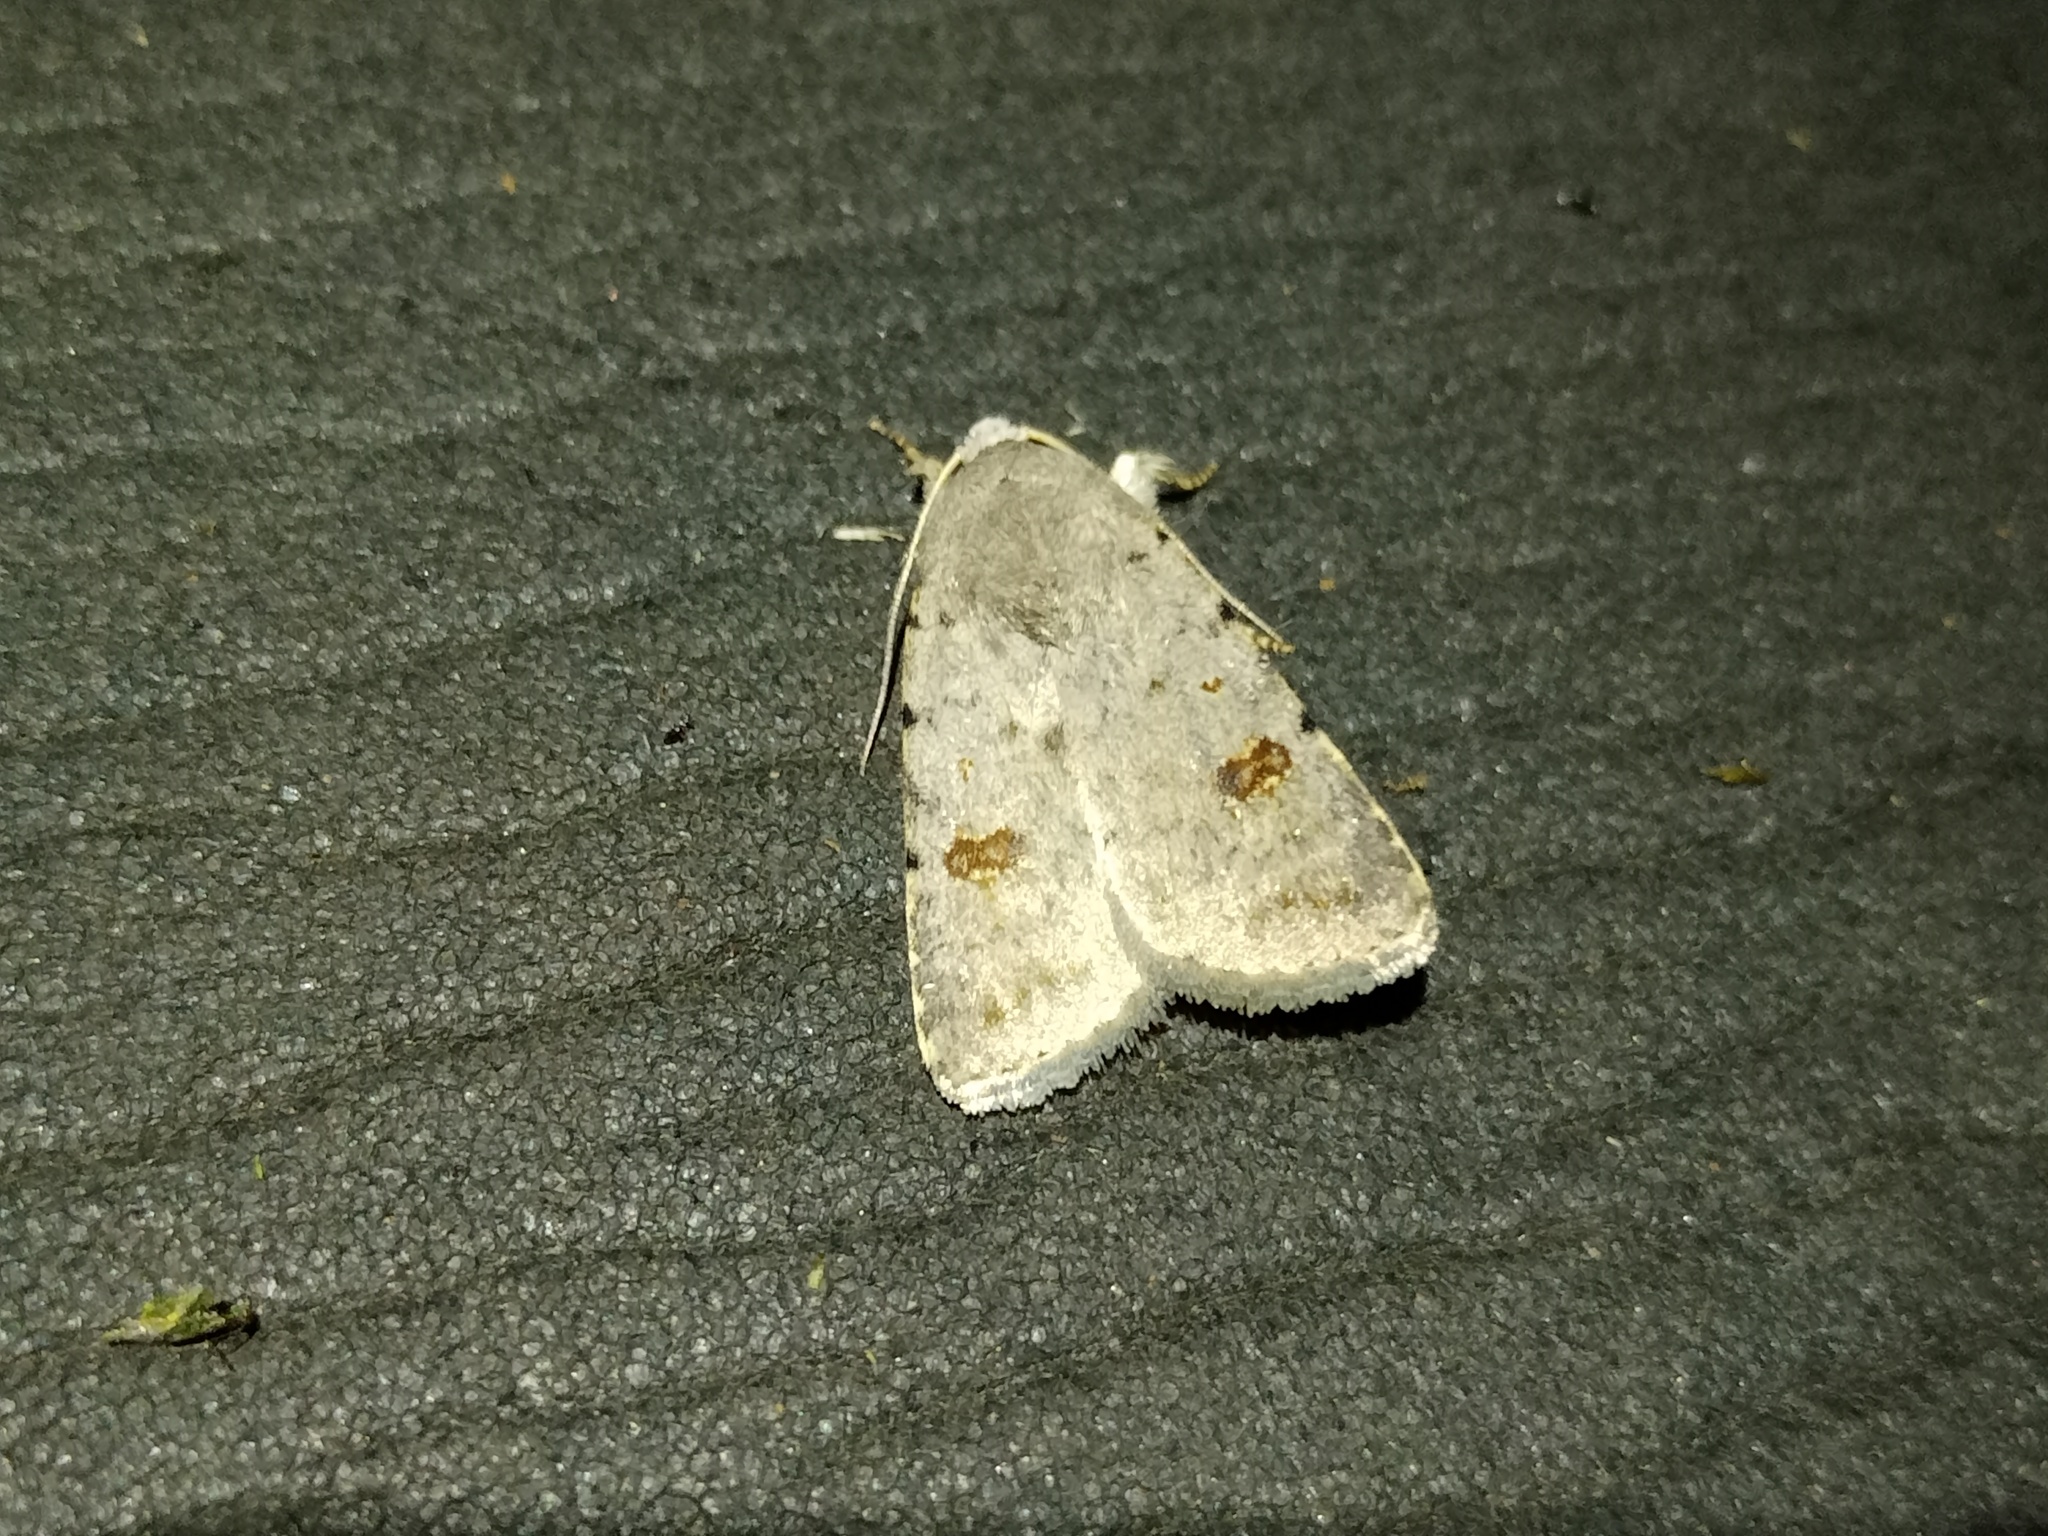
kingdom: Animalia
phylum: Arthropoda
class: Insecta
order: Lepidoptera
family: Noctuidae
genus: Caradrina
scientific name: Caradrina kadenii
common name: Clancy's rustic
